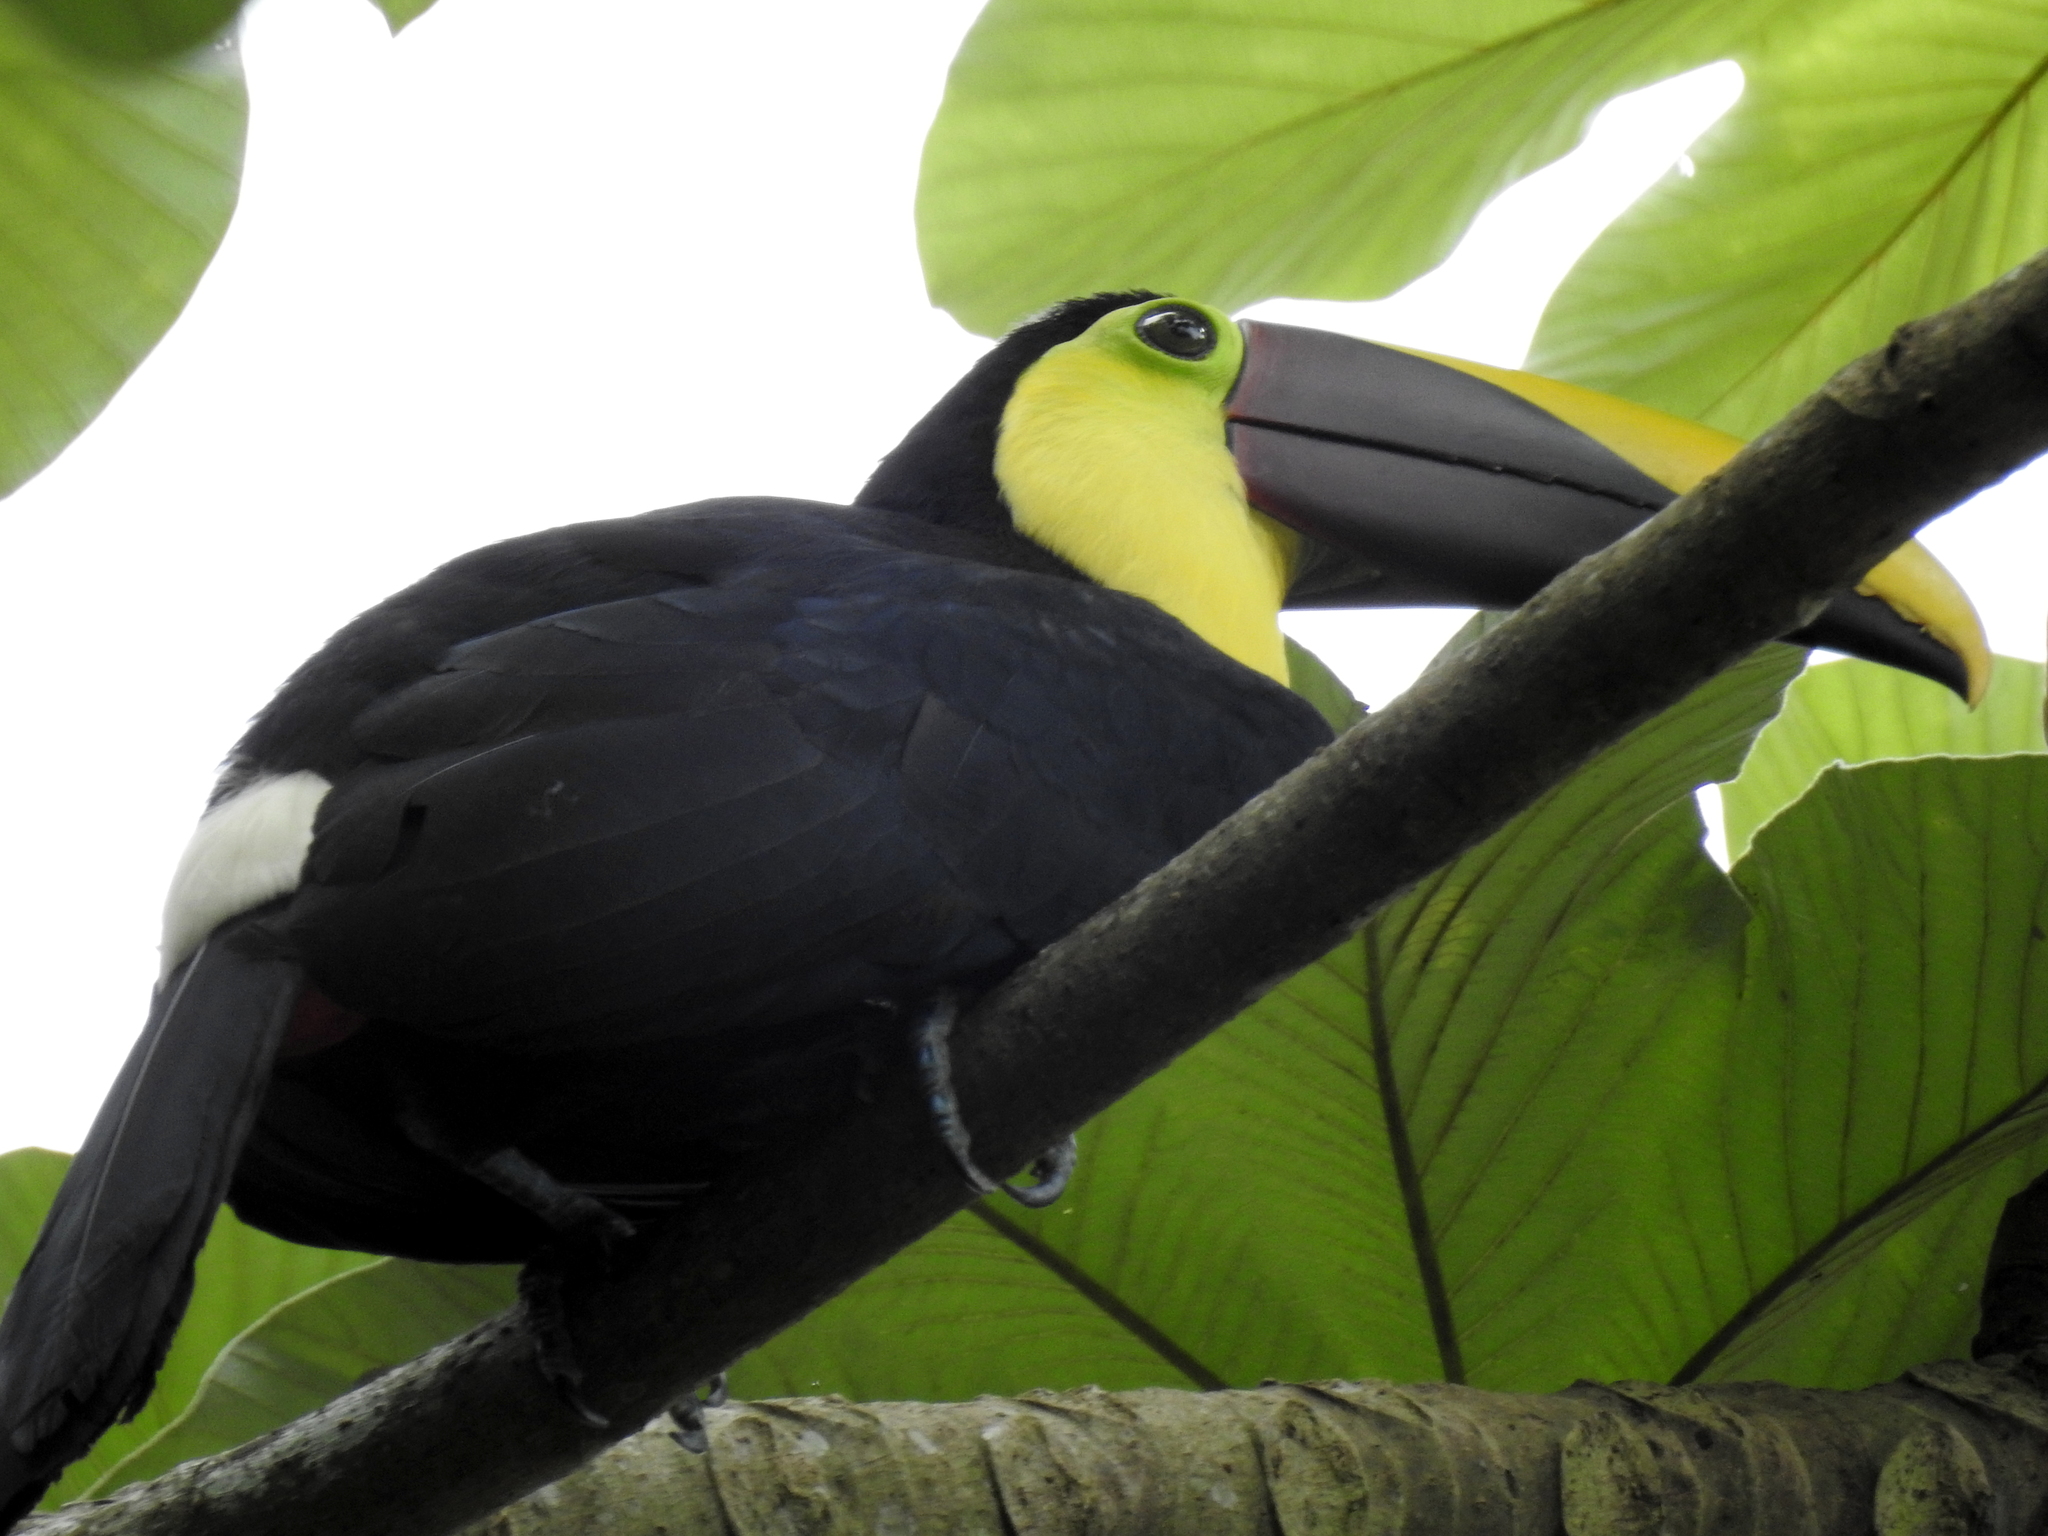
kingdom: Animalia
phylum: Chordata
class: Aves
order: Piciformes
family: Ramphastidae
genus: Ramphastos
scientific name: Ramphastos ambiguus
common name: Yellow-throated toucan
